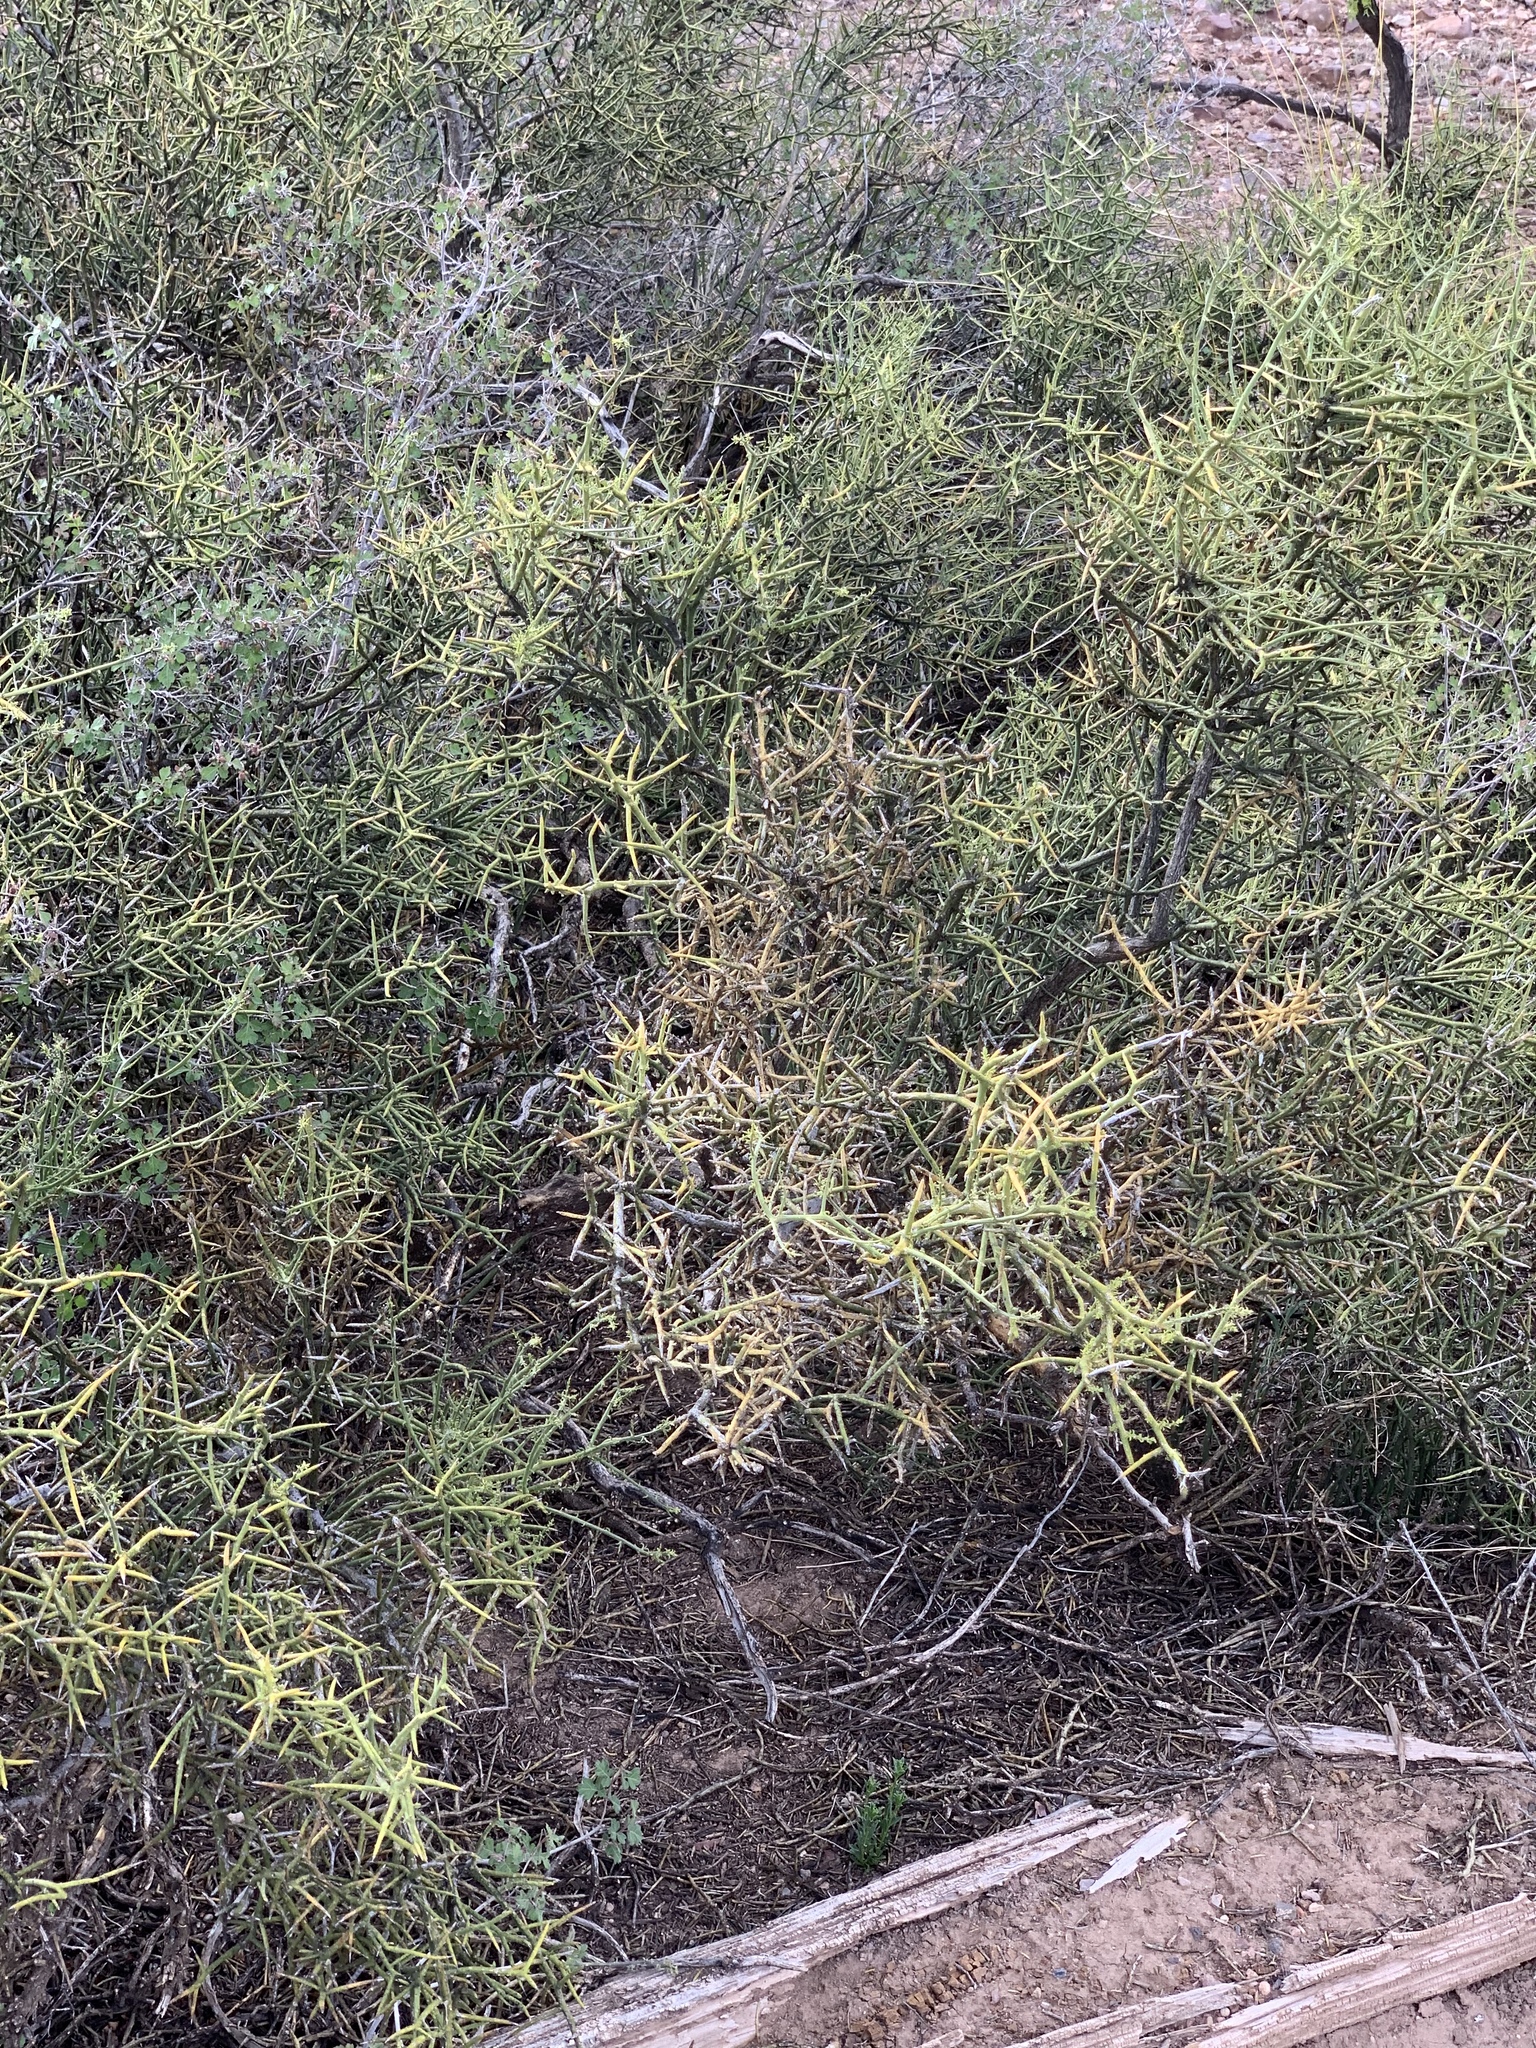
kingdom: Plantae
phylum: Tracheophyta
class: Magnoliopsida
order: Brassicales
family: Koeberliniaceae
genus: Koeberlinia
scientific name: Koeberlinia spinosa
